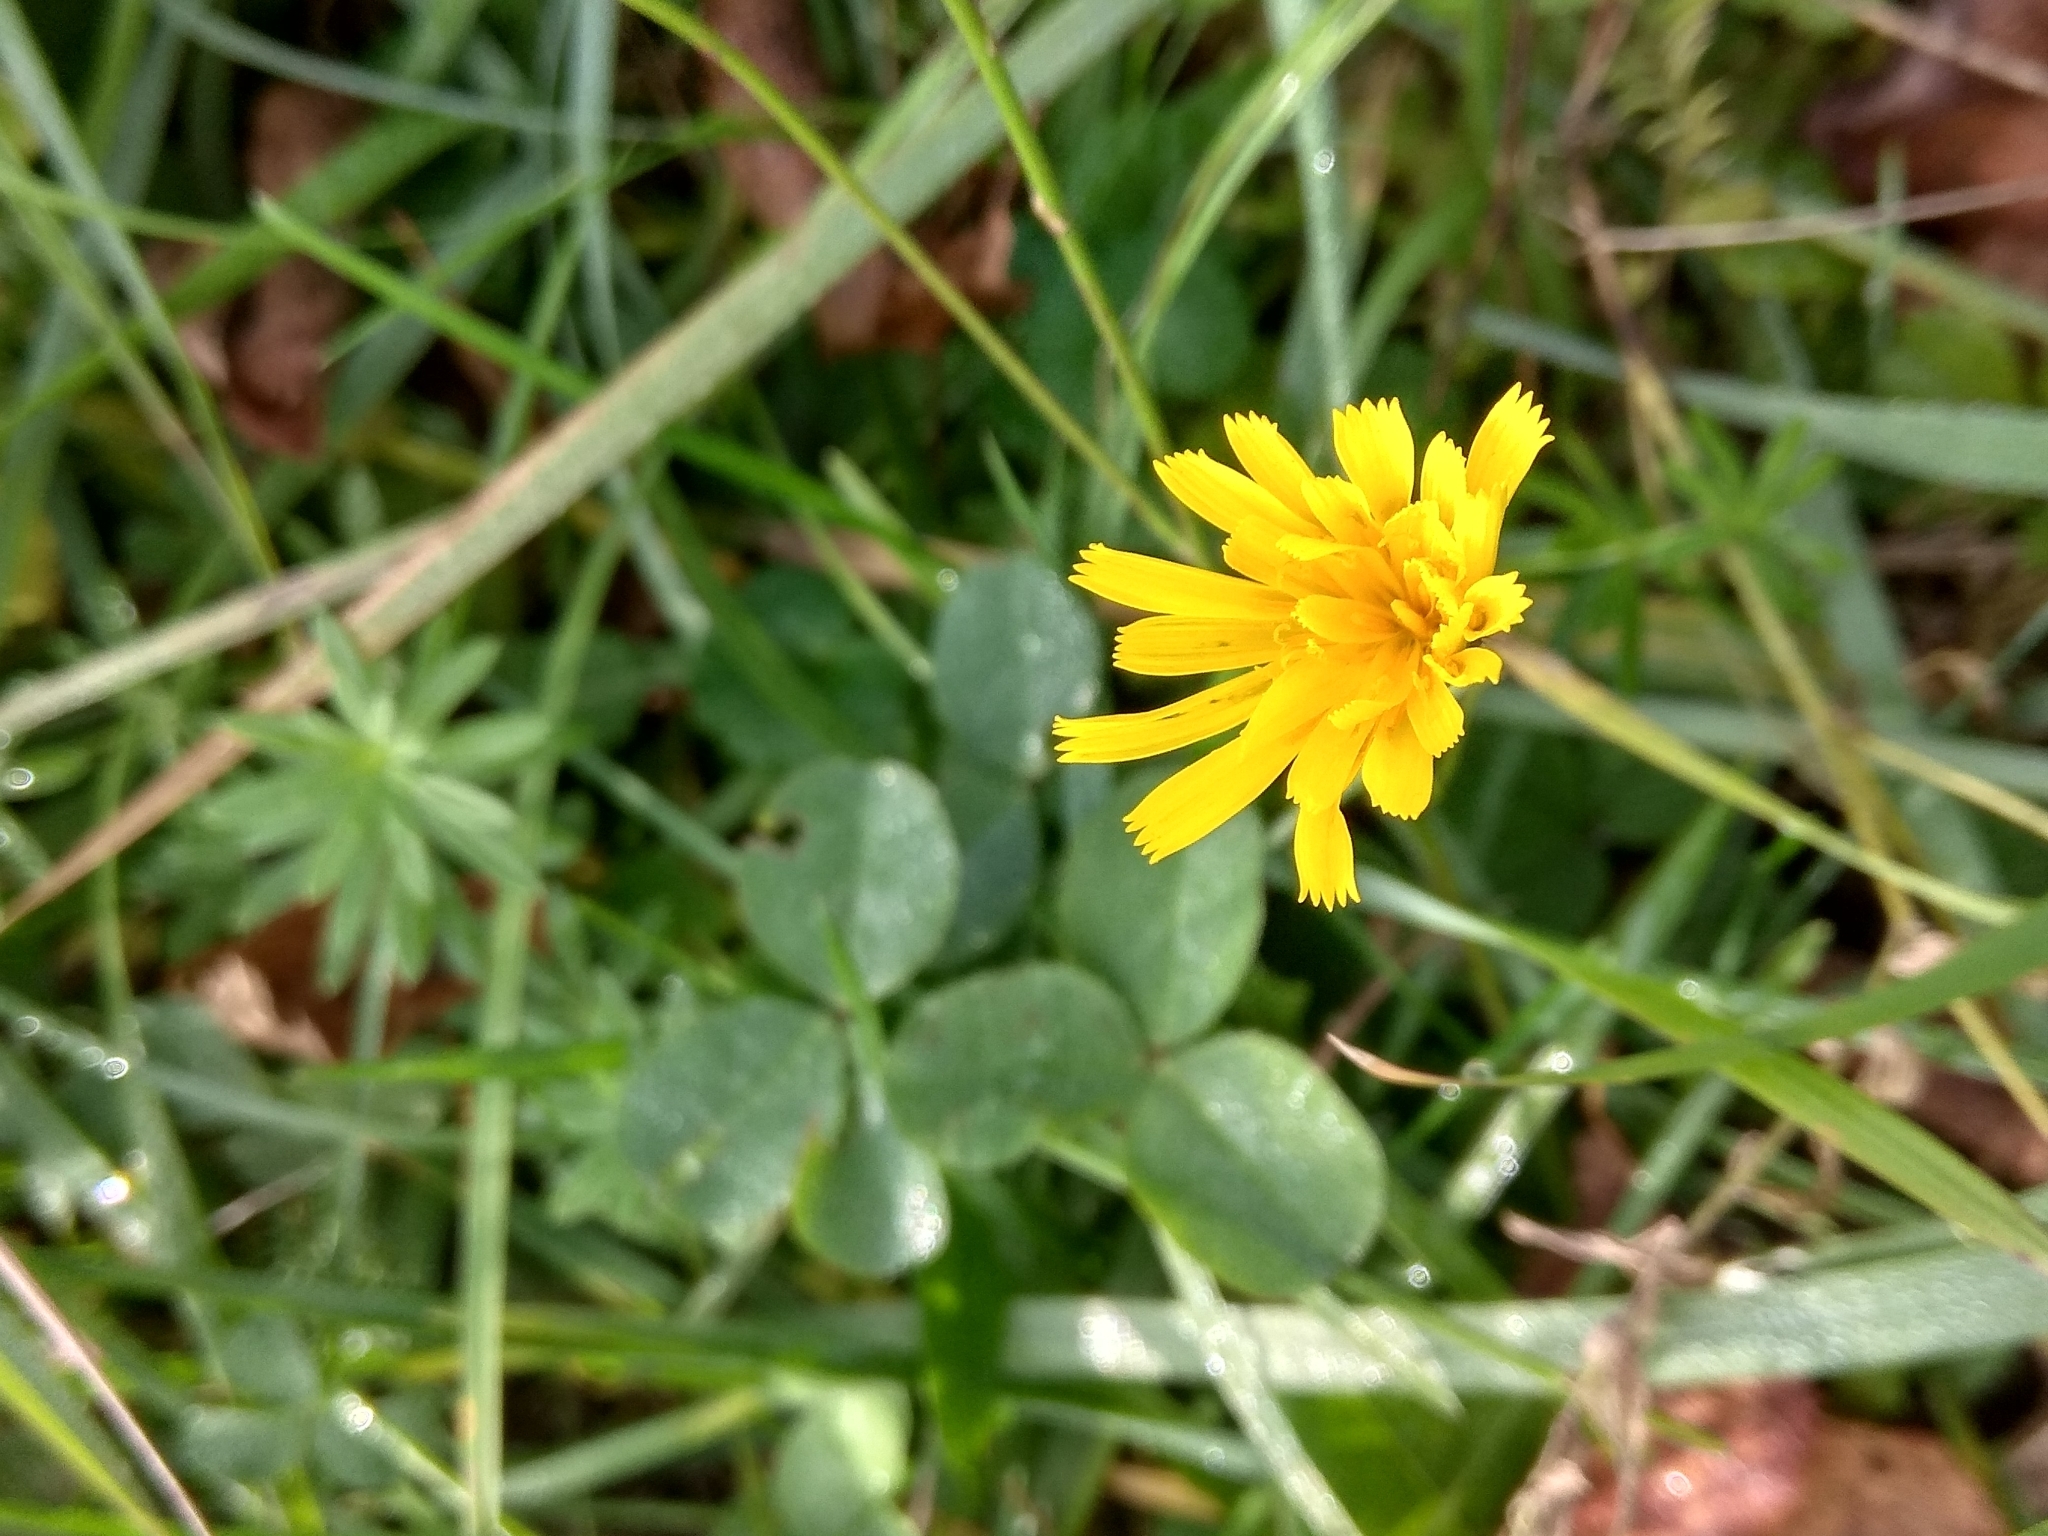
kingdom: Plantae
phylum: Tracheophyta
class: Magnoliopsida
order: Asterales
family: Asteraceae
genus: Scorzoneroides
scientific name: Scorzoneroides autumnalis
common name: Autumn hawkbit
